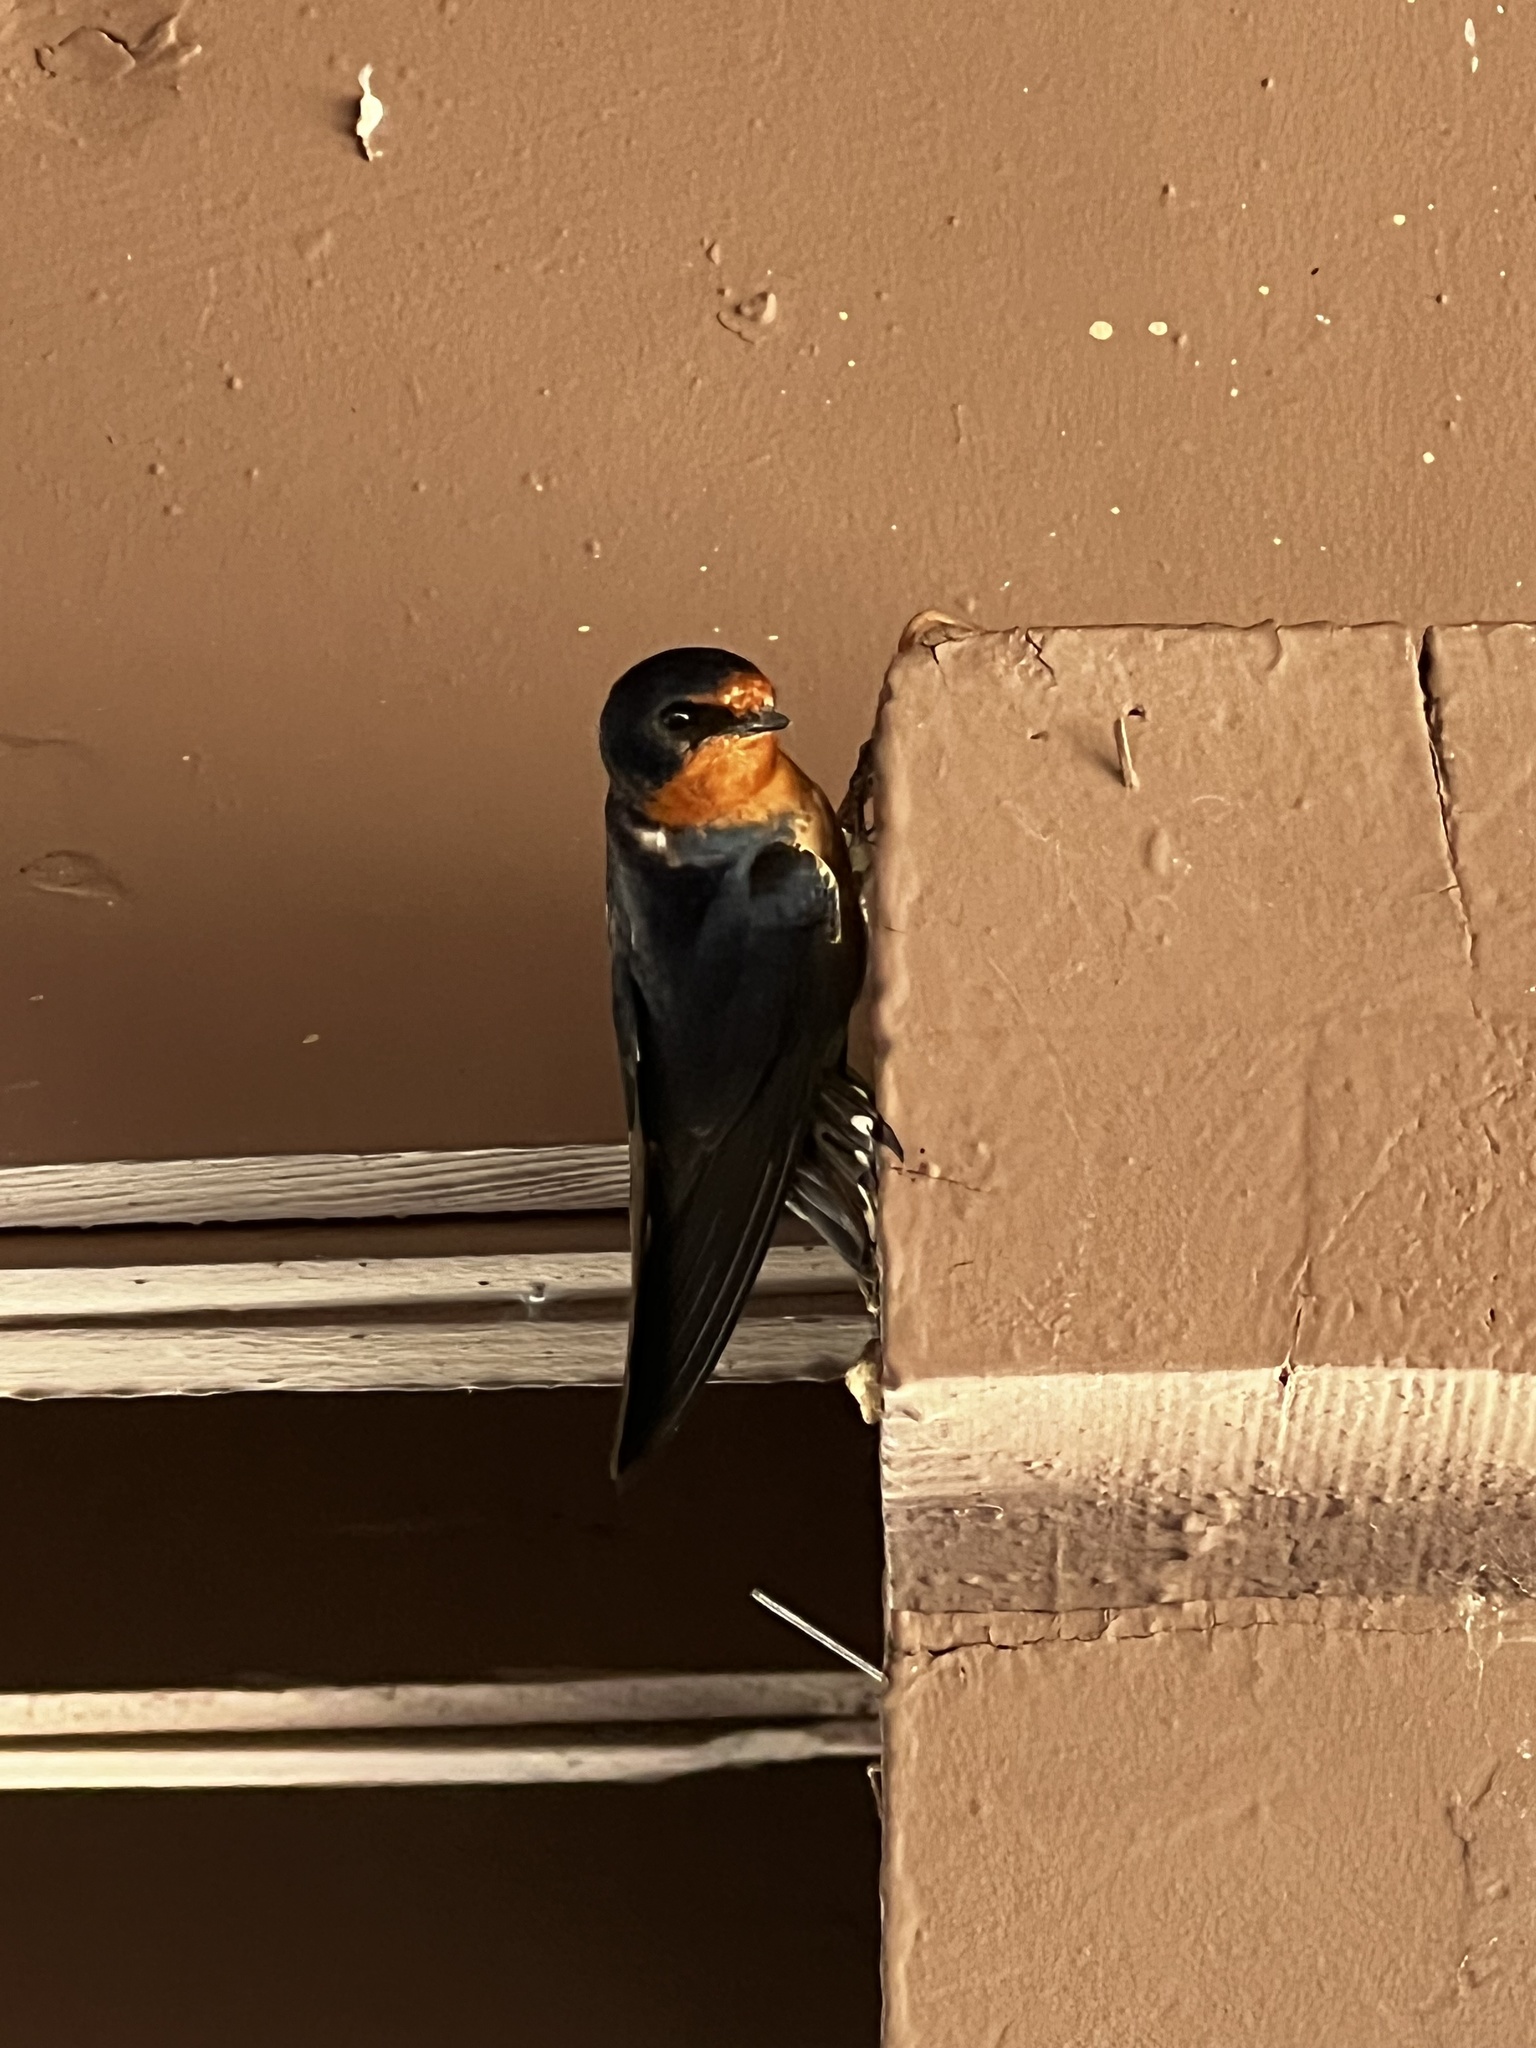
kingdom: Animalia
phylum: Chordata
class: Aves
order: Passeriformes
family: Hirundinidae
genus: Hirundo
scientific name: Hirundo rustica
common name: Barn swallow
